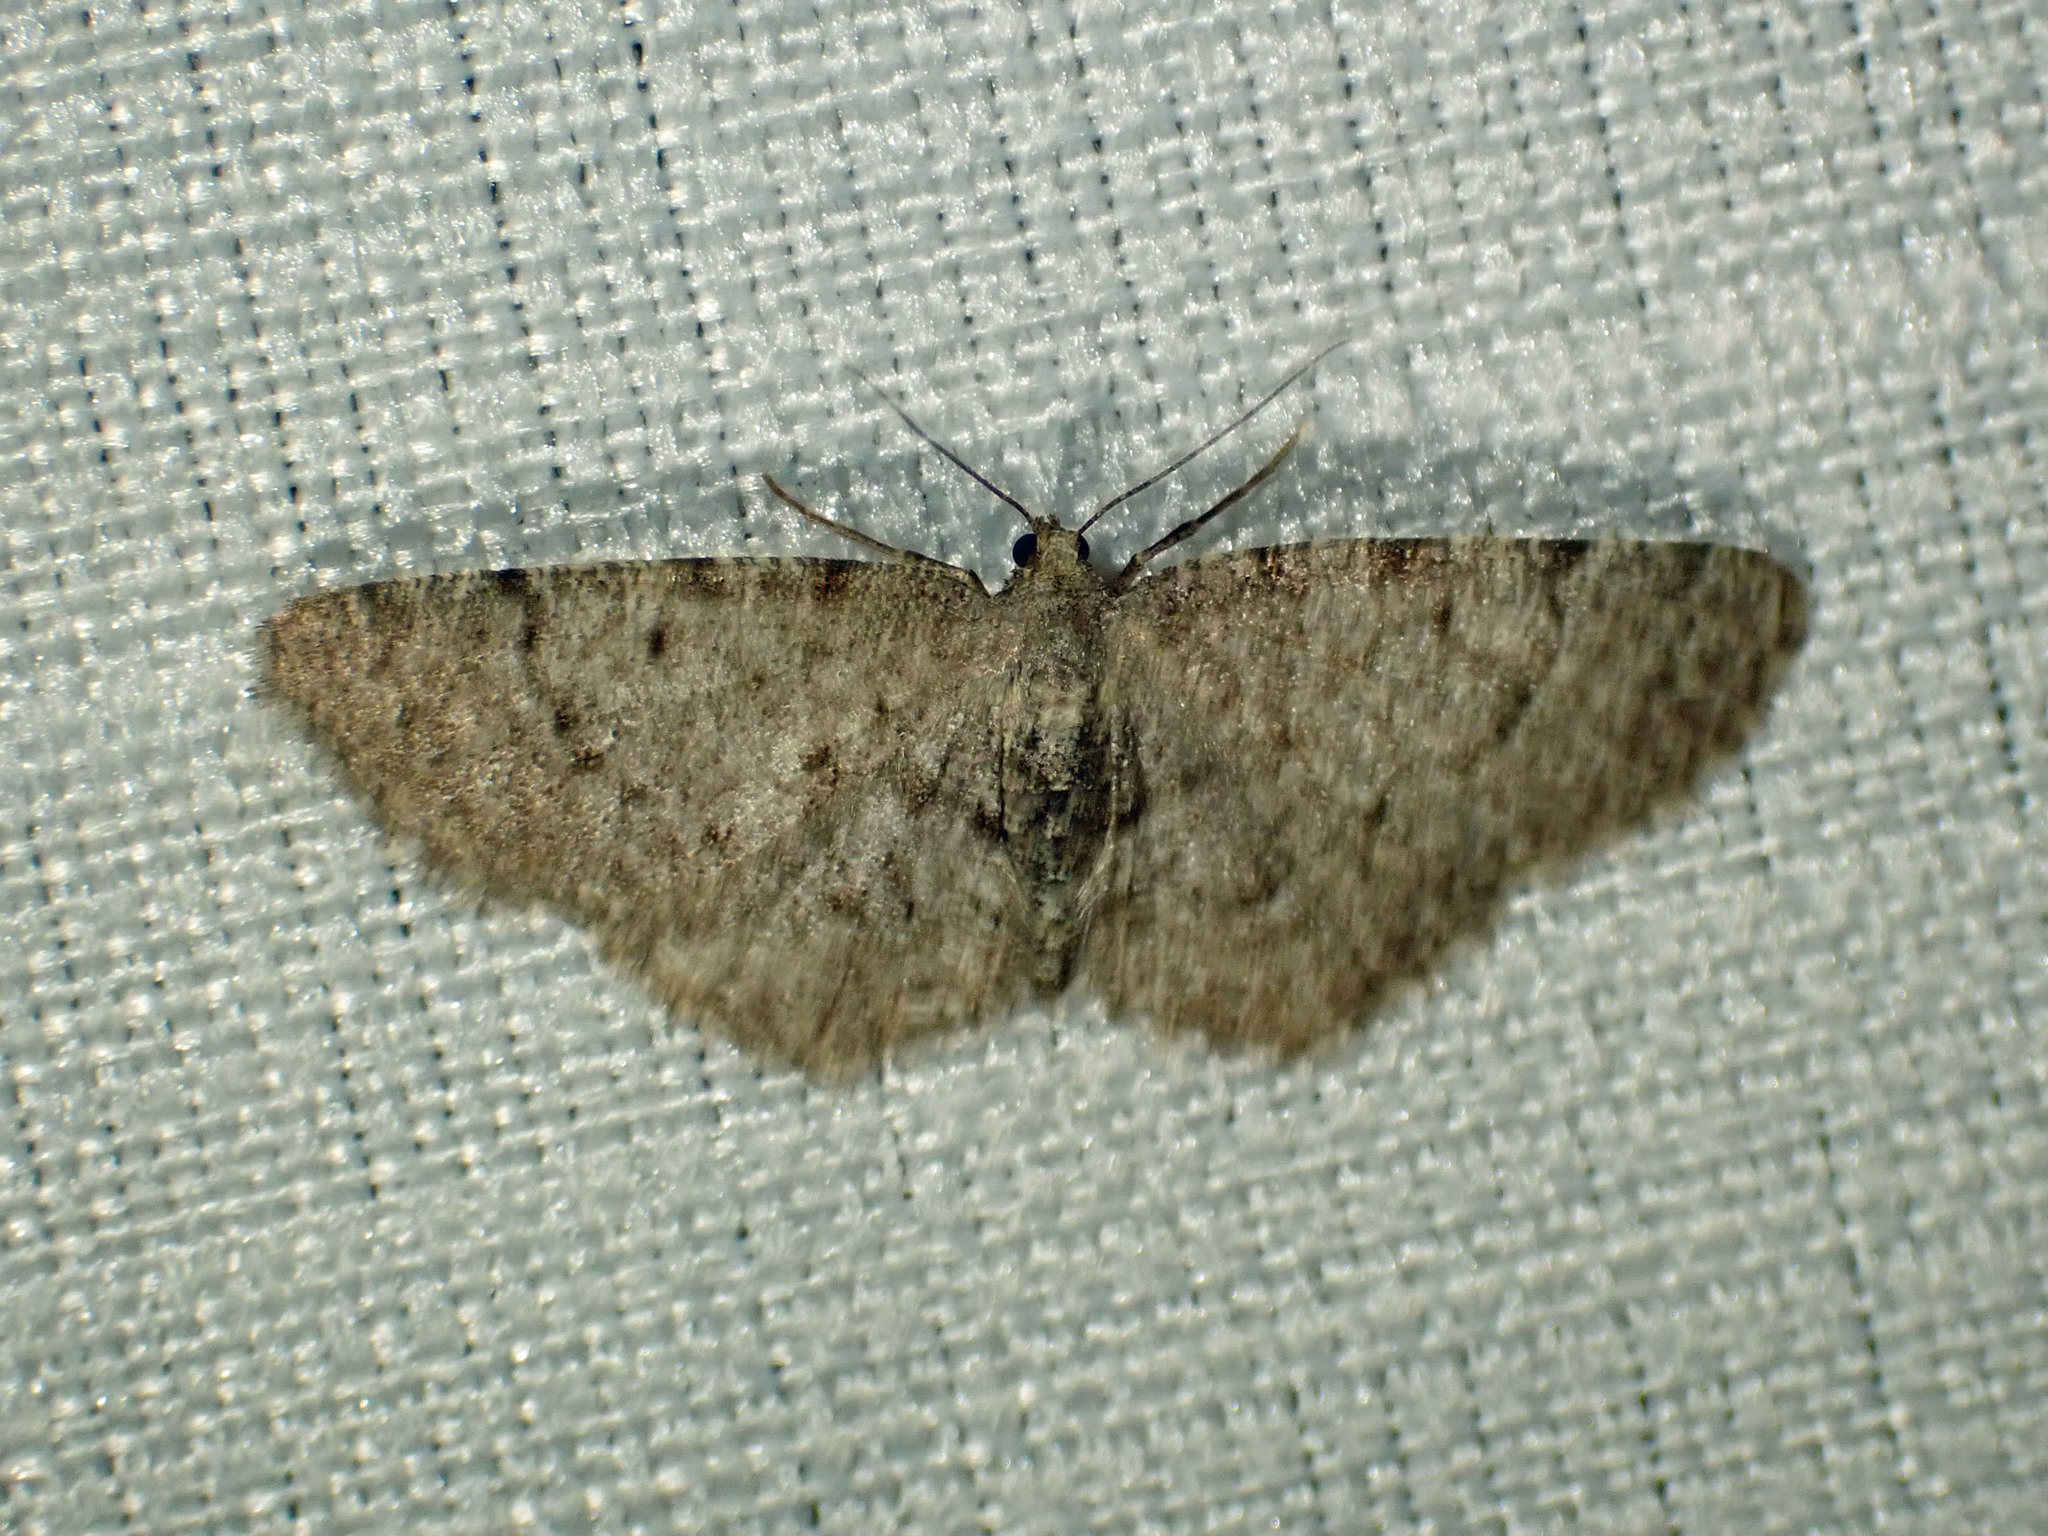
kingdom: Animalia
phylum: Arthropoda
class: Insecta
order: Lepidoptera
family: Geometridae
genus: Aethalura
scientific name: Aethalura intertexta
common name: Four-barred gray
